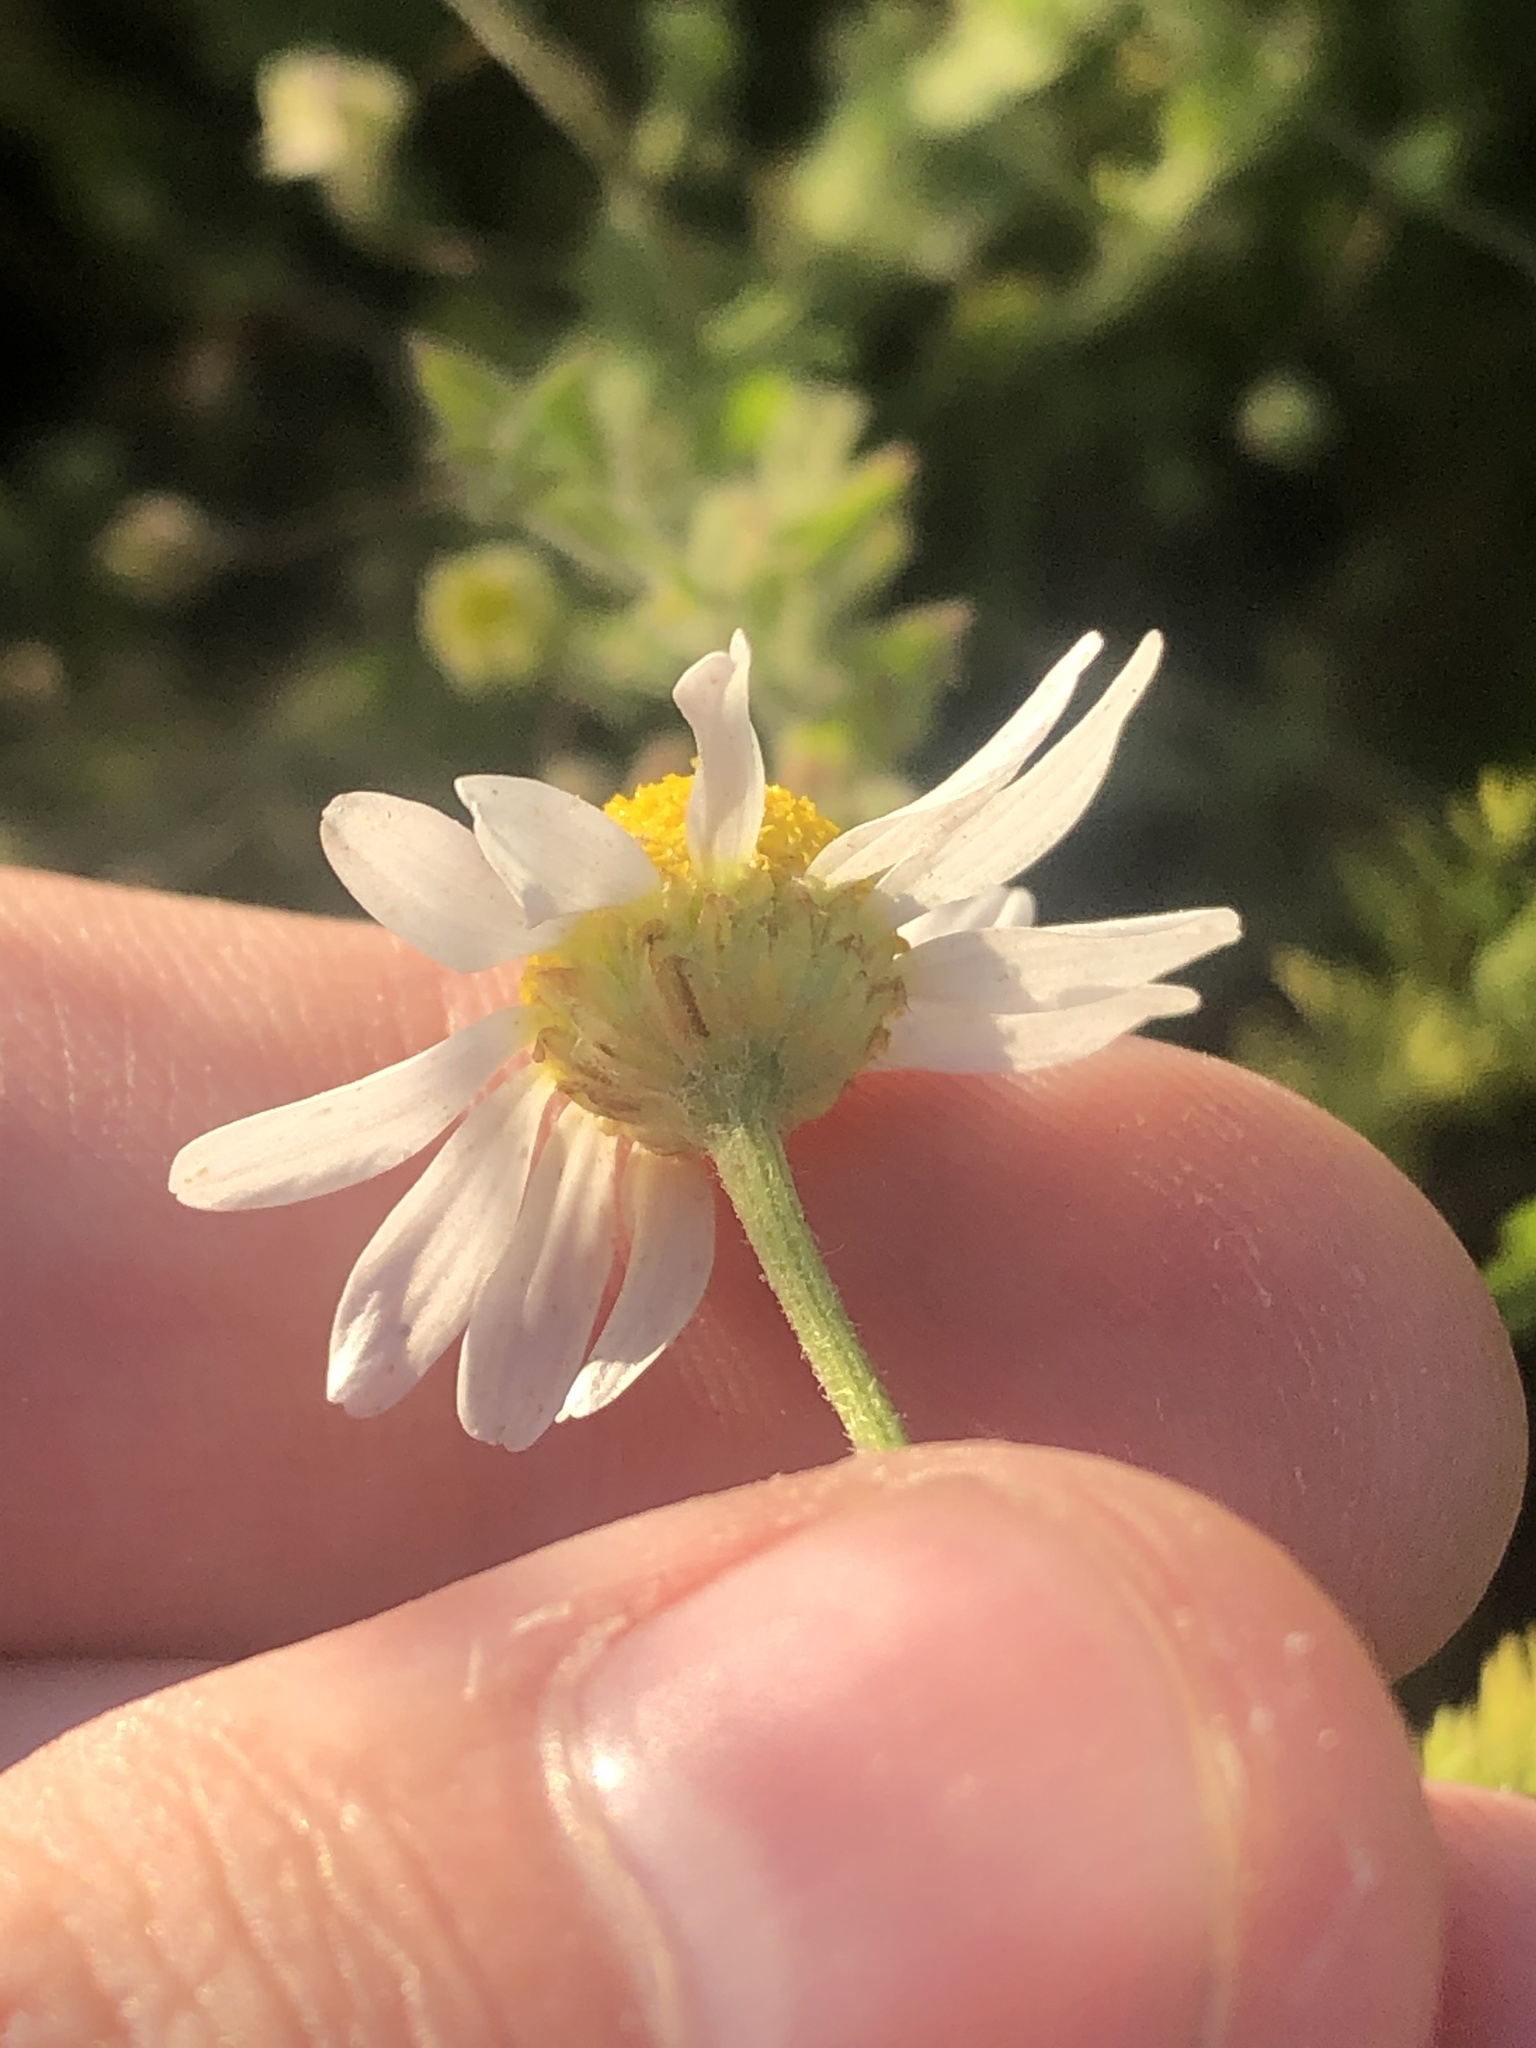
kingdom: Plantae
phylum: Tracheophyta
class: Magnoliopsida
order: Asterales
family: Asteraceae
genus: Anthemis
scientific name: Anthemis cotula
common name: Stinking chamomile
